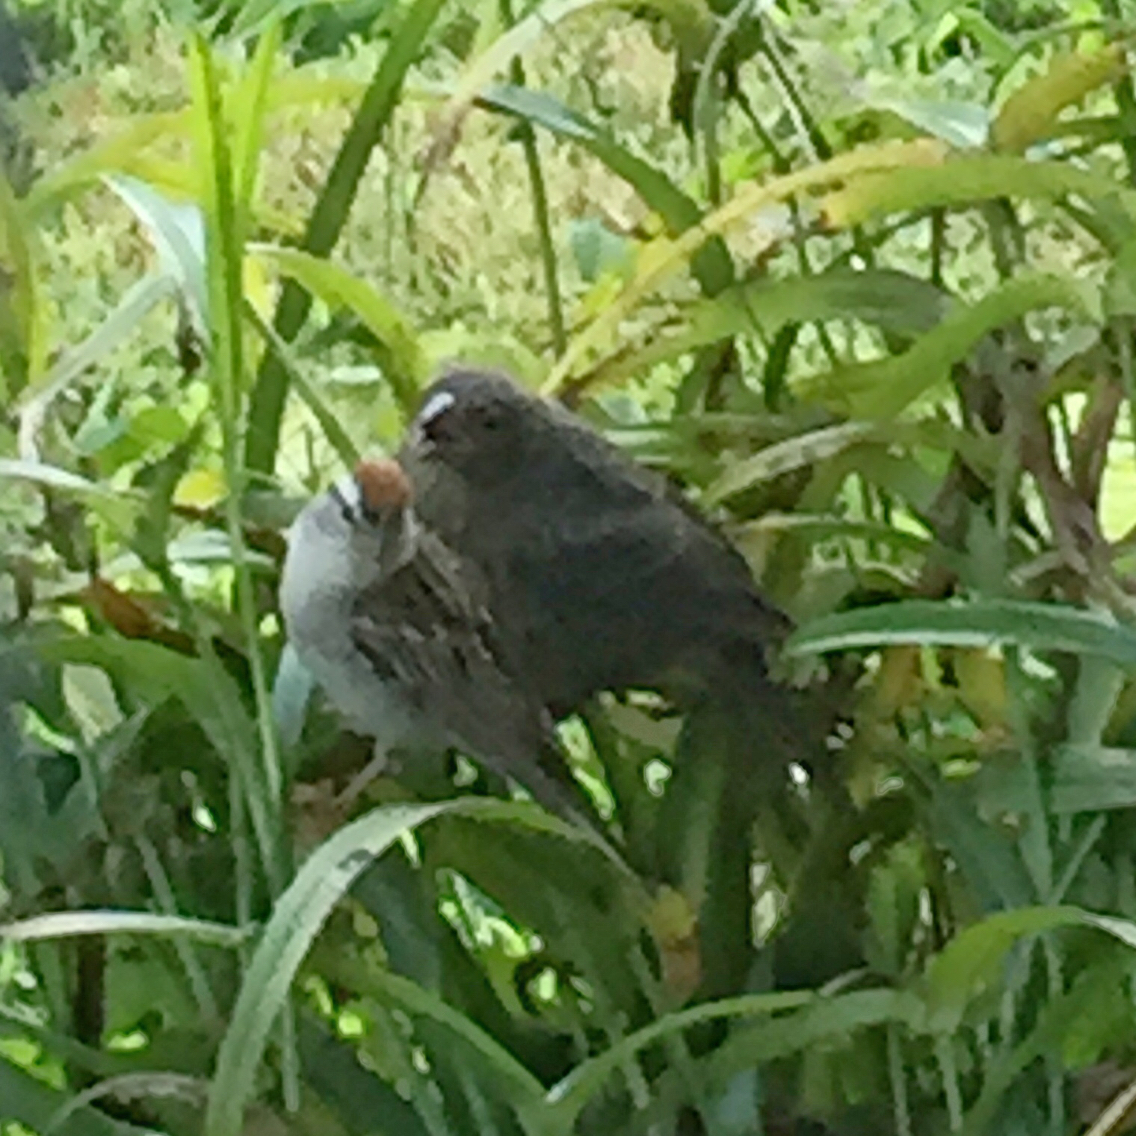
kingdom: Animalia
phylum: Chordata
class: Aves
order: Passeriformes
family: Icteridae
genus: Molothrus
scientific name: Molothrus ater
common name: Brown-headed cowbird
